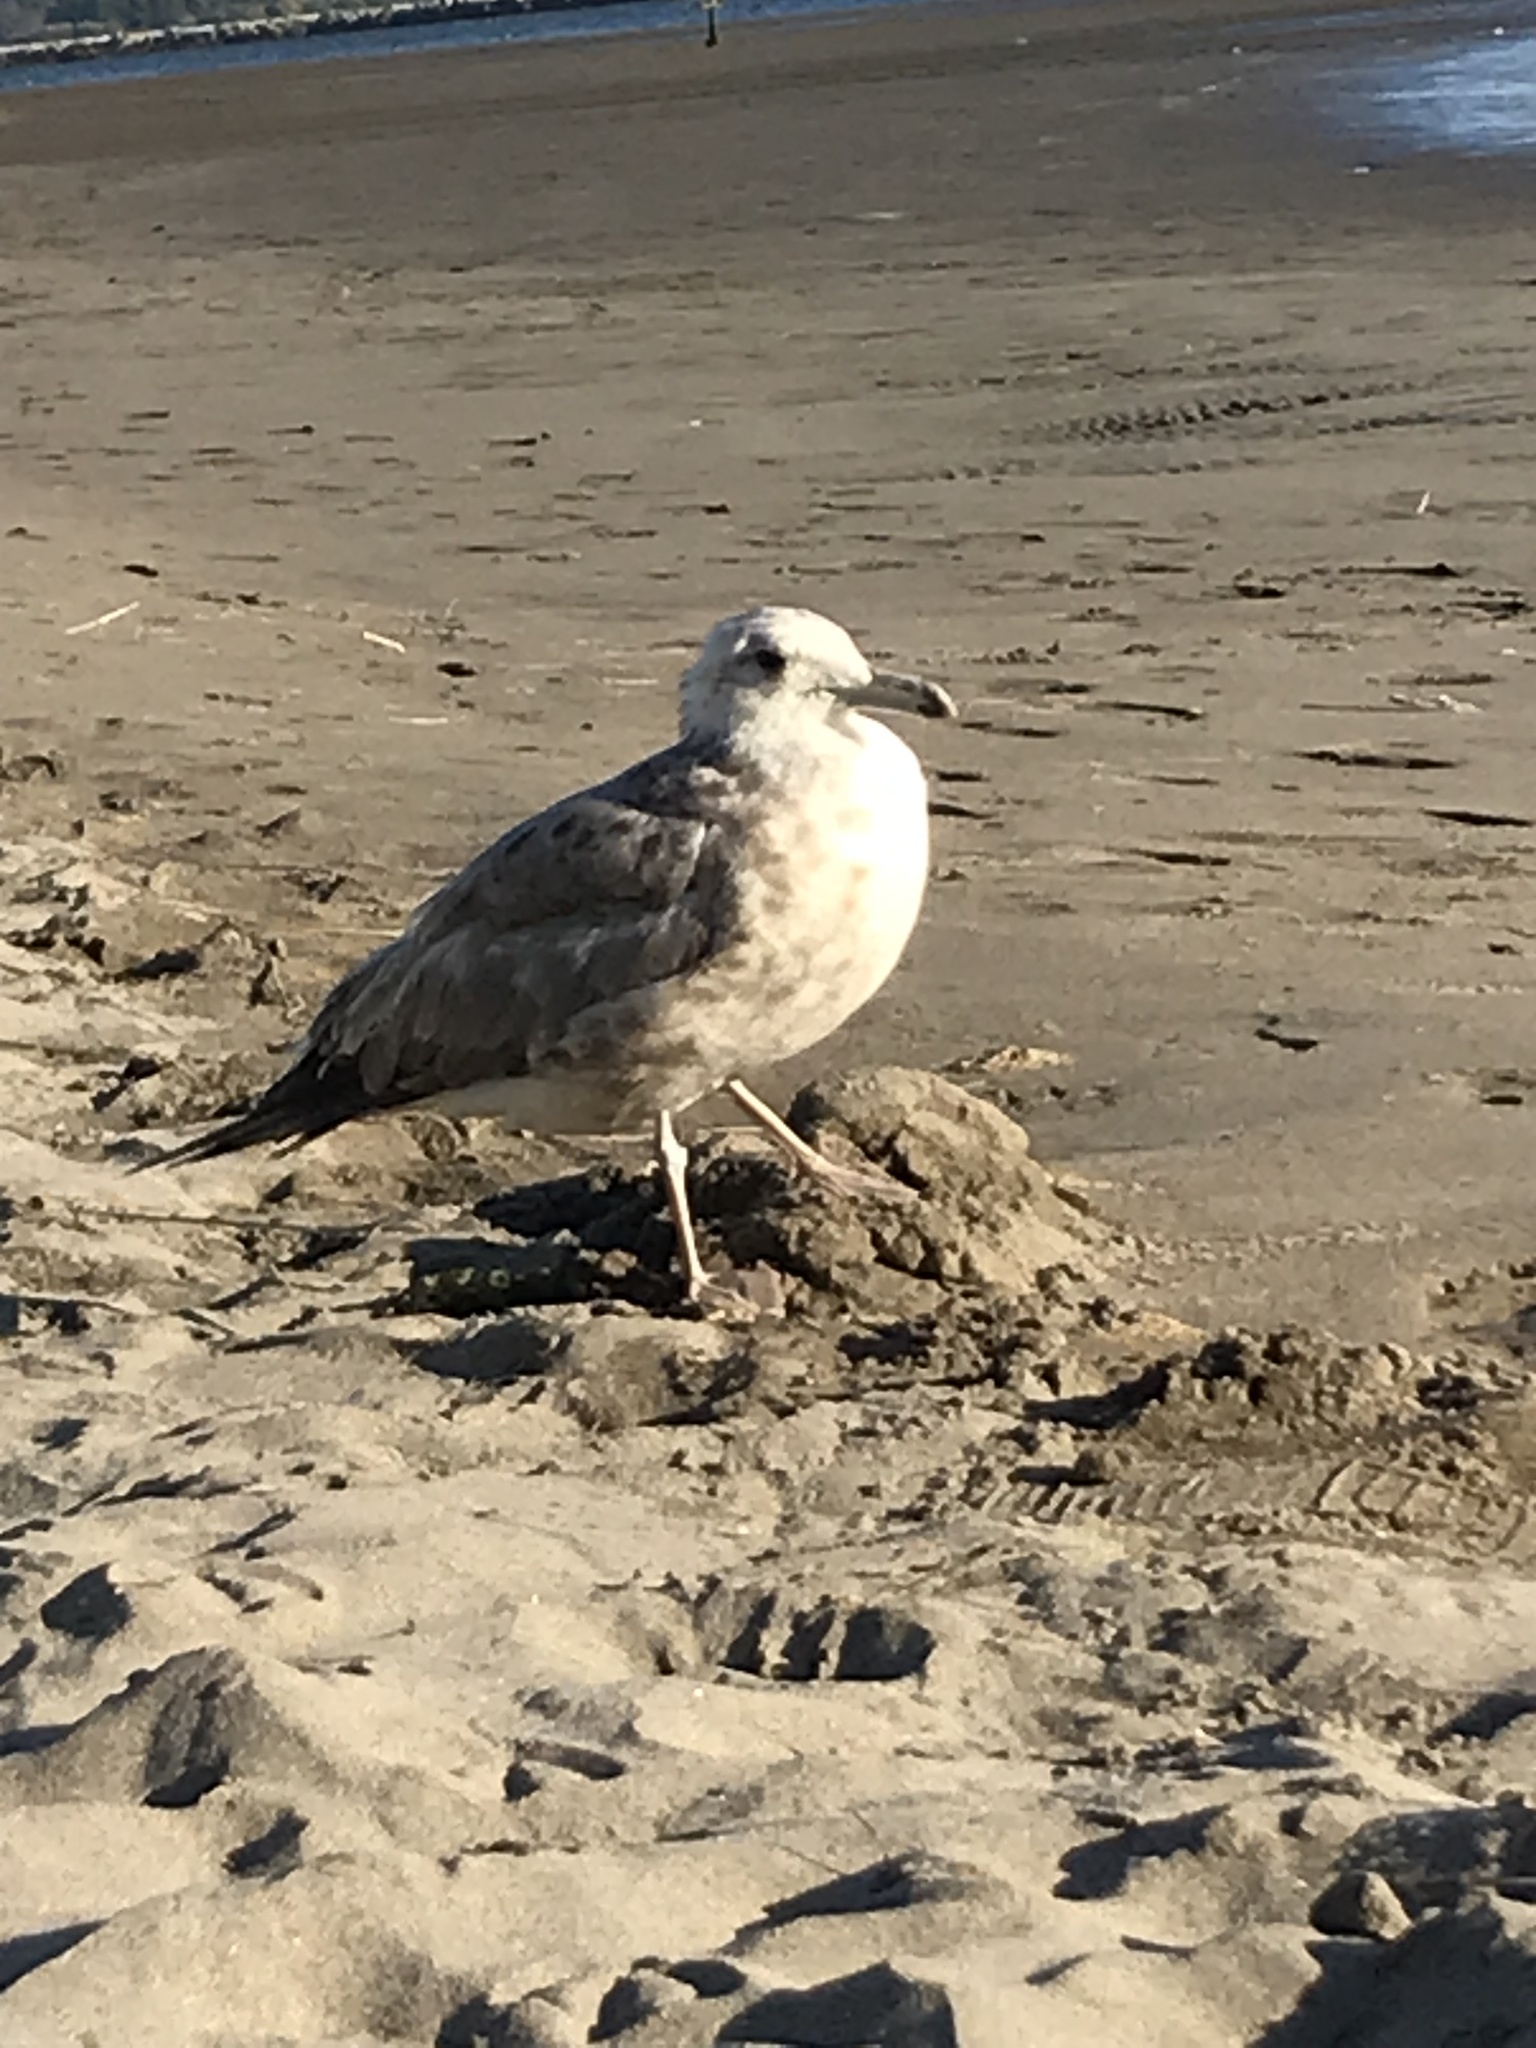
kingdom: Animalia
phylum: Chordata
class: Aves
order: Charadriiformes
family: Laridae
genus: Larus
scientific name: Larus californicus
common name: California gull
